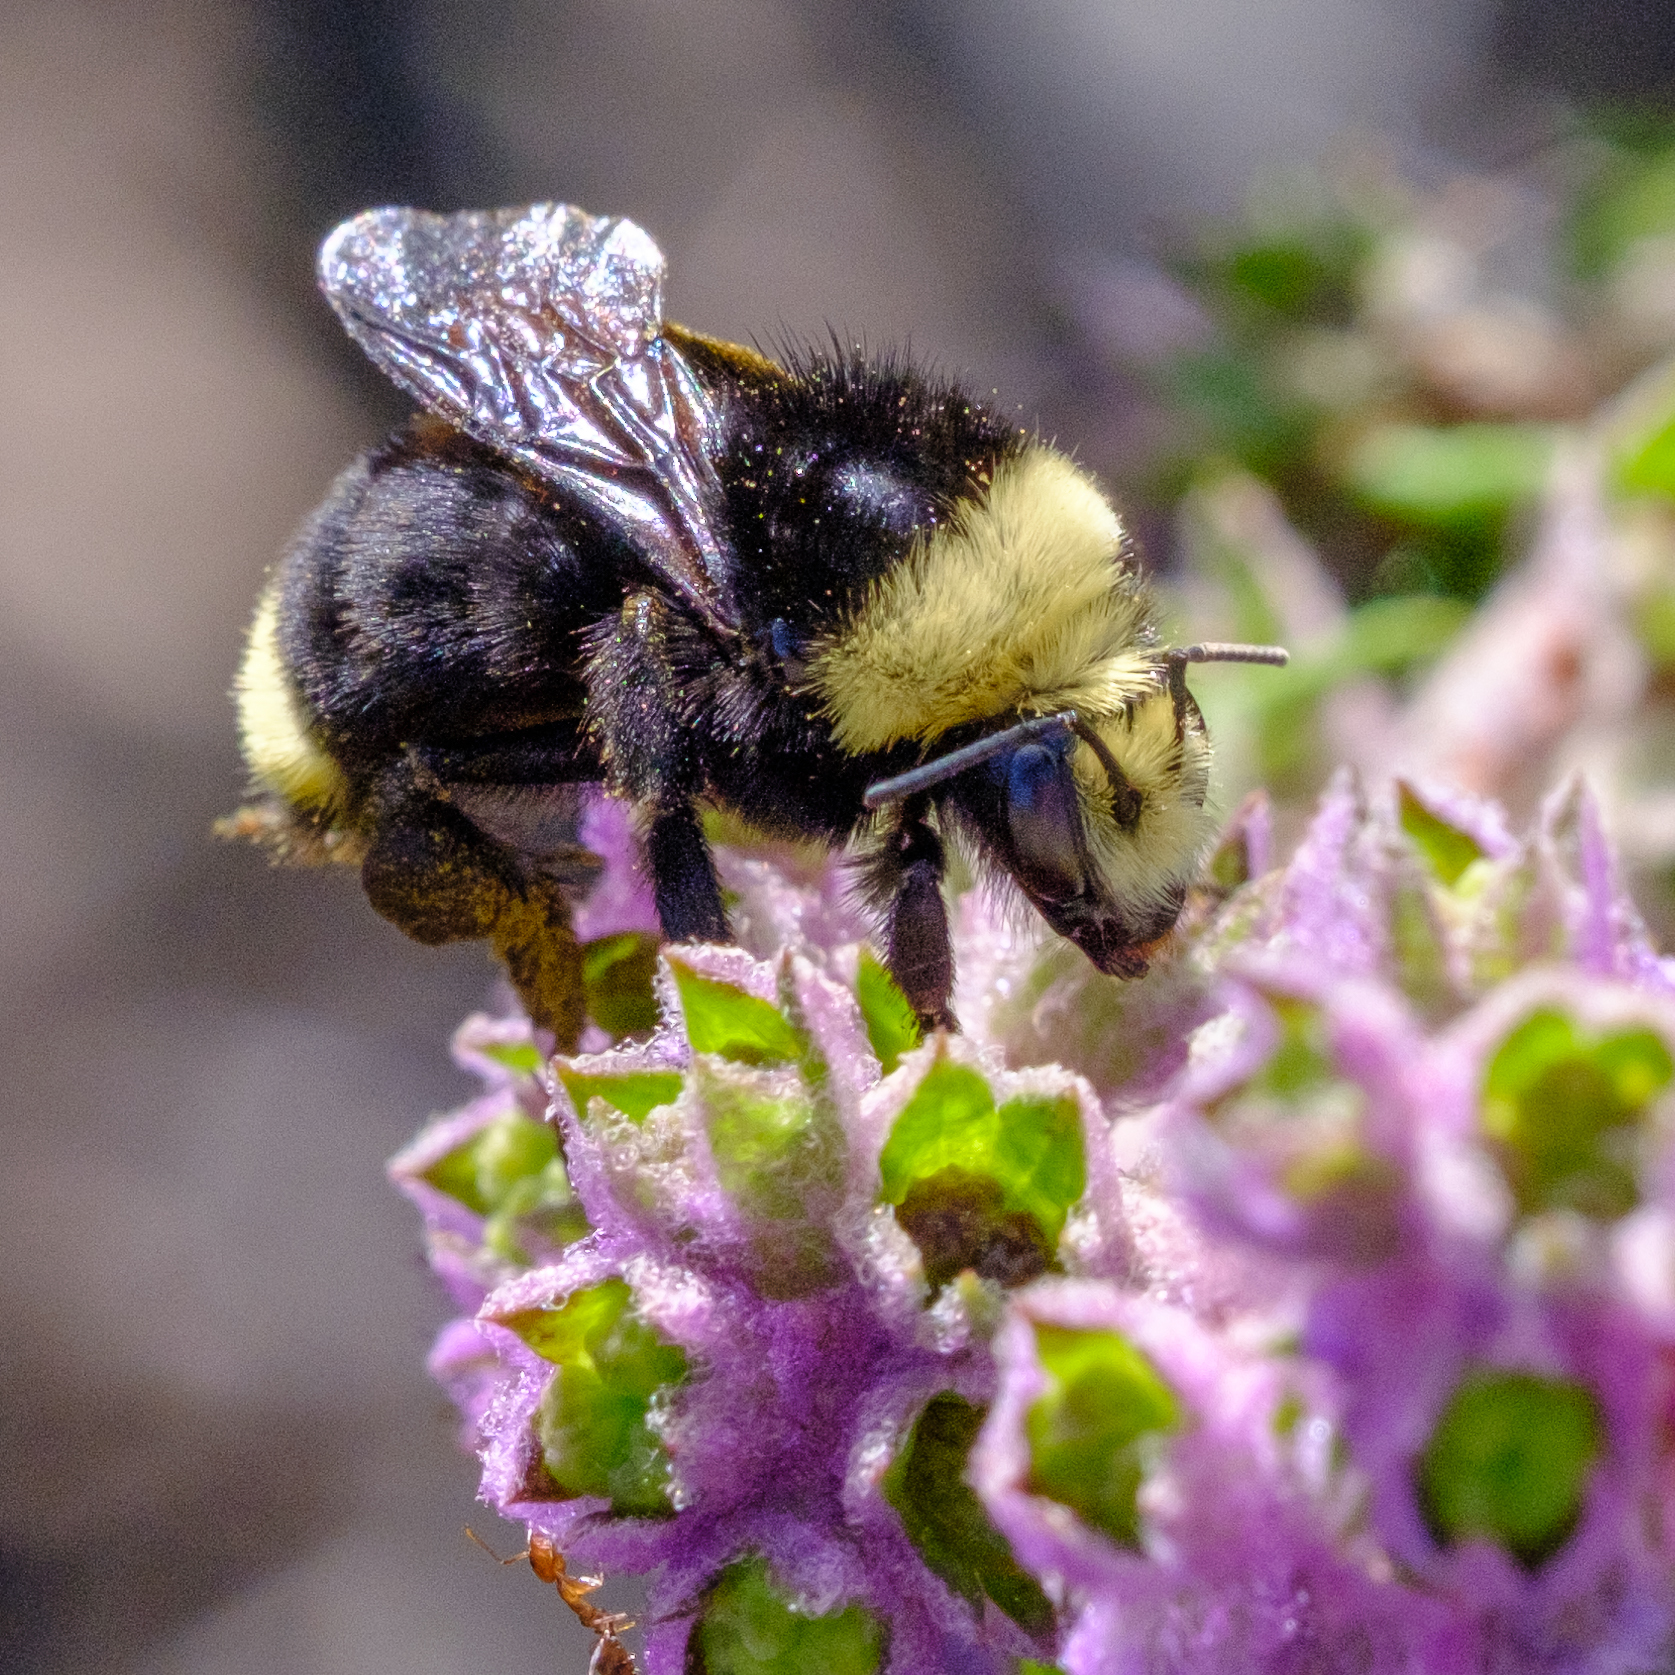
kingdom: Animalia
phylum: Arthropoda
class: Insecta
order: Hymenoptera
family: Apidae
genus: Bombus
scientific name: Bombus vosnesenskii
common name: Vosnesensky bumble bee
